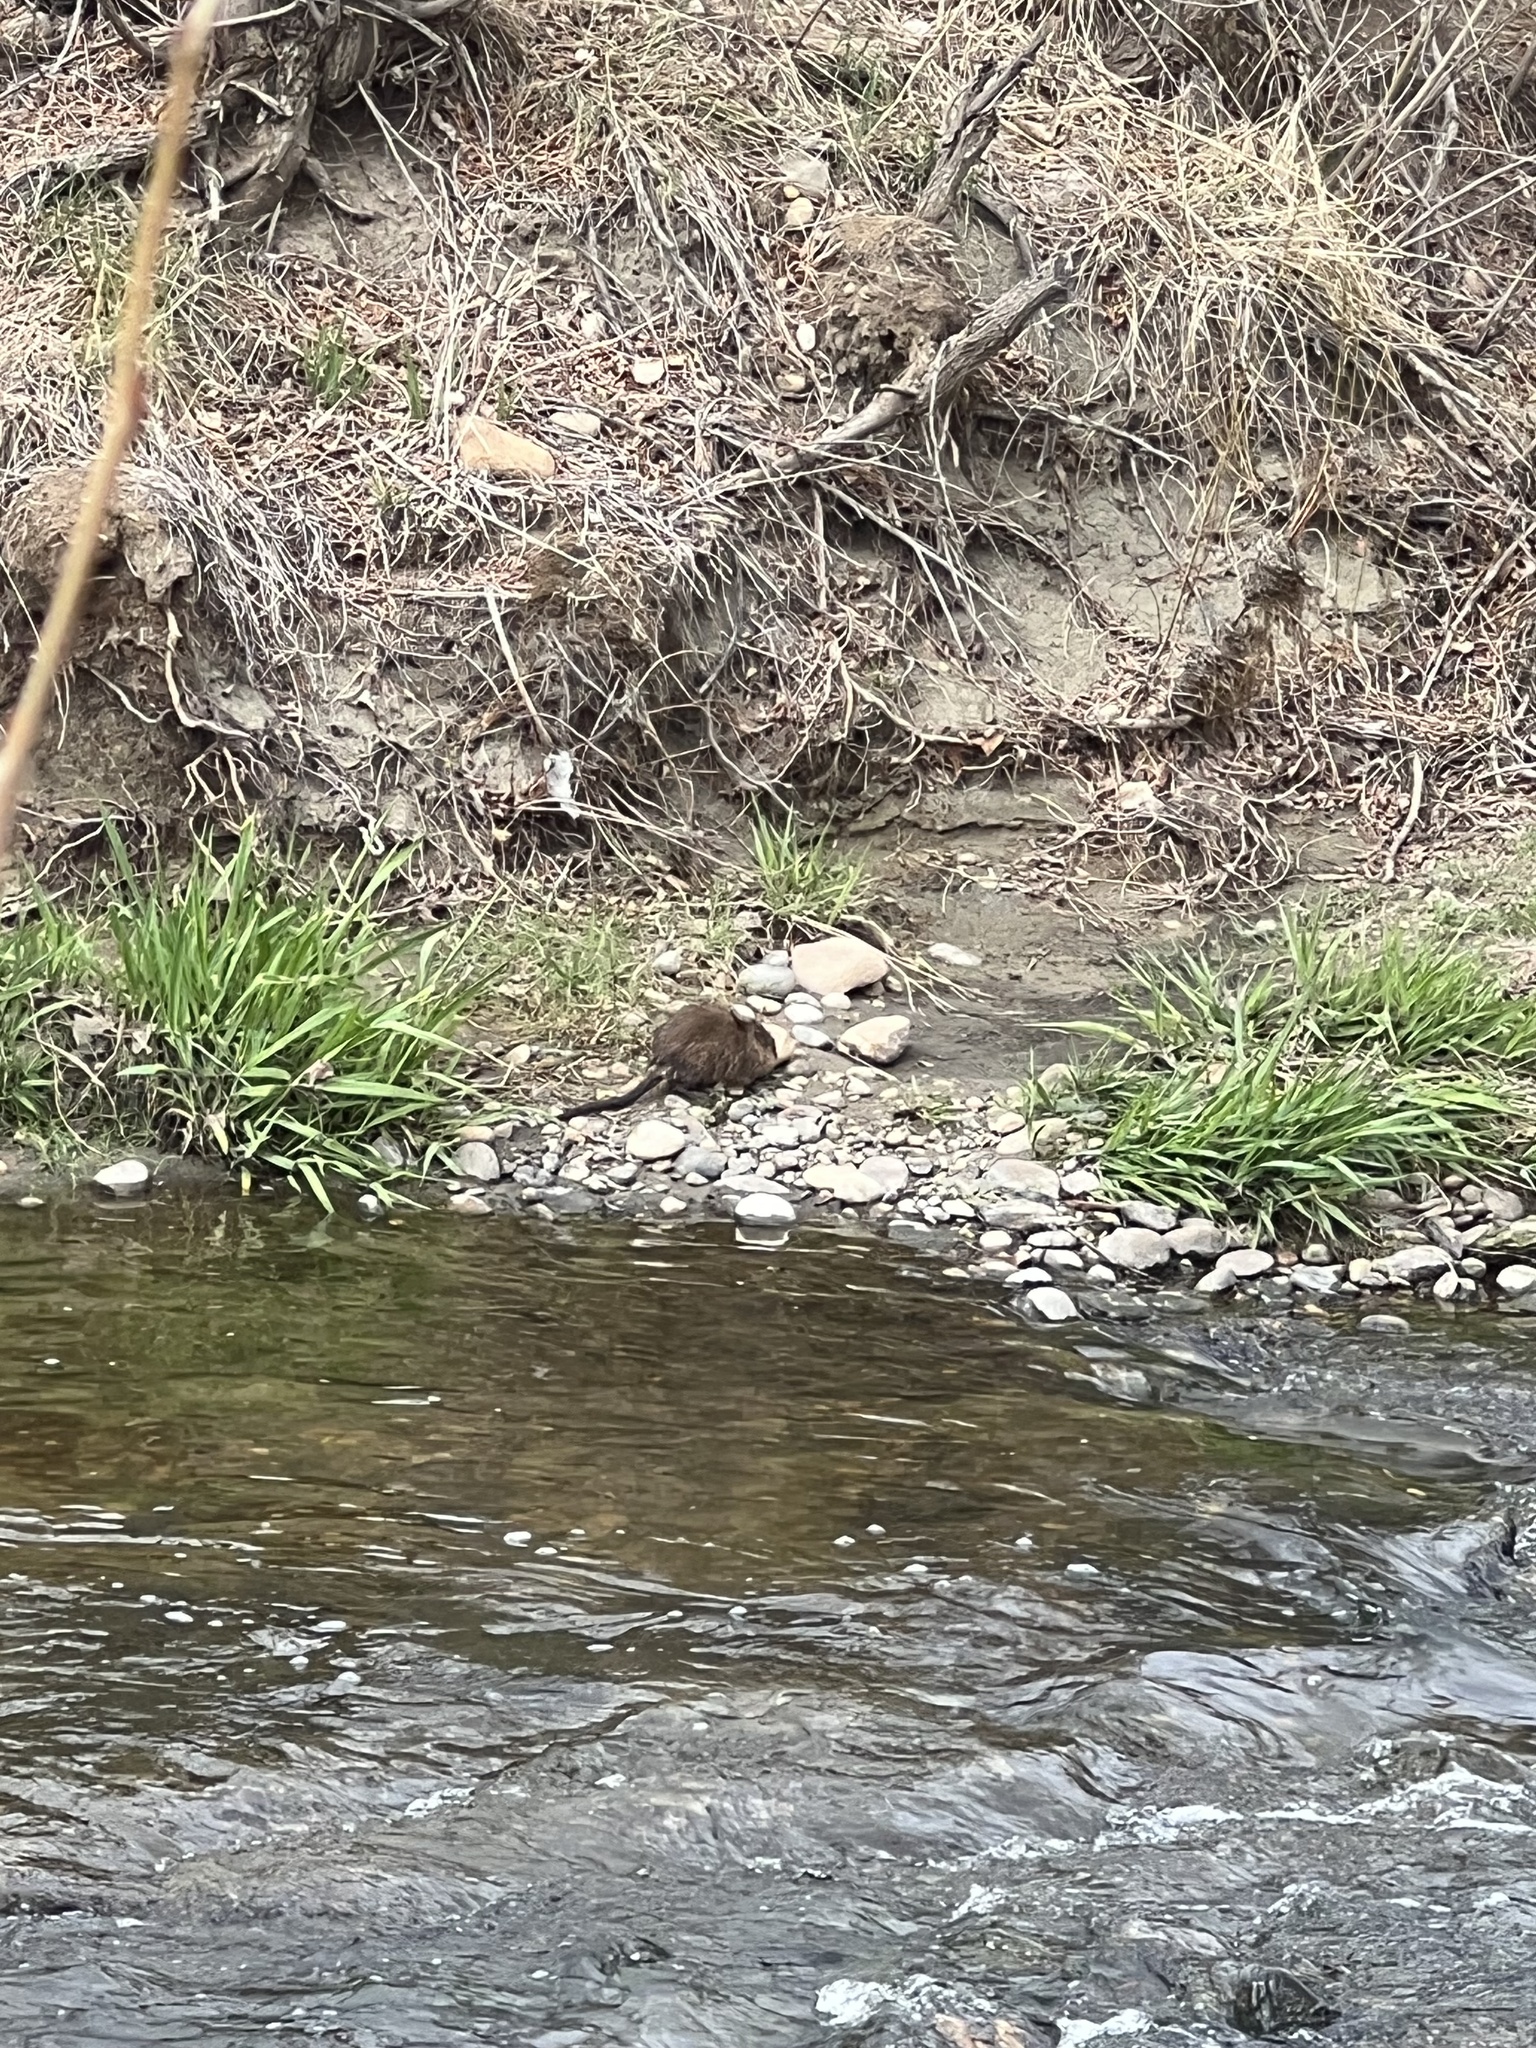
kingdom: Animalia
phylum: Chordata
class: Mammalia
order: Rodentia
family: Cricetidae
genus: Ondatra
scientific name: Ondatra zibethicus
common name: Muskrat
